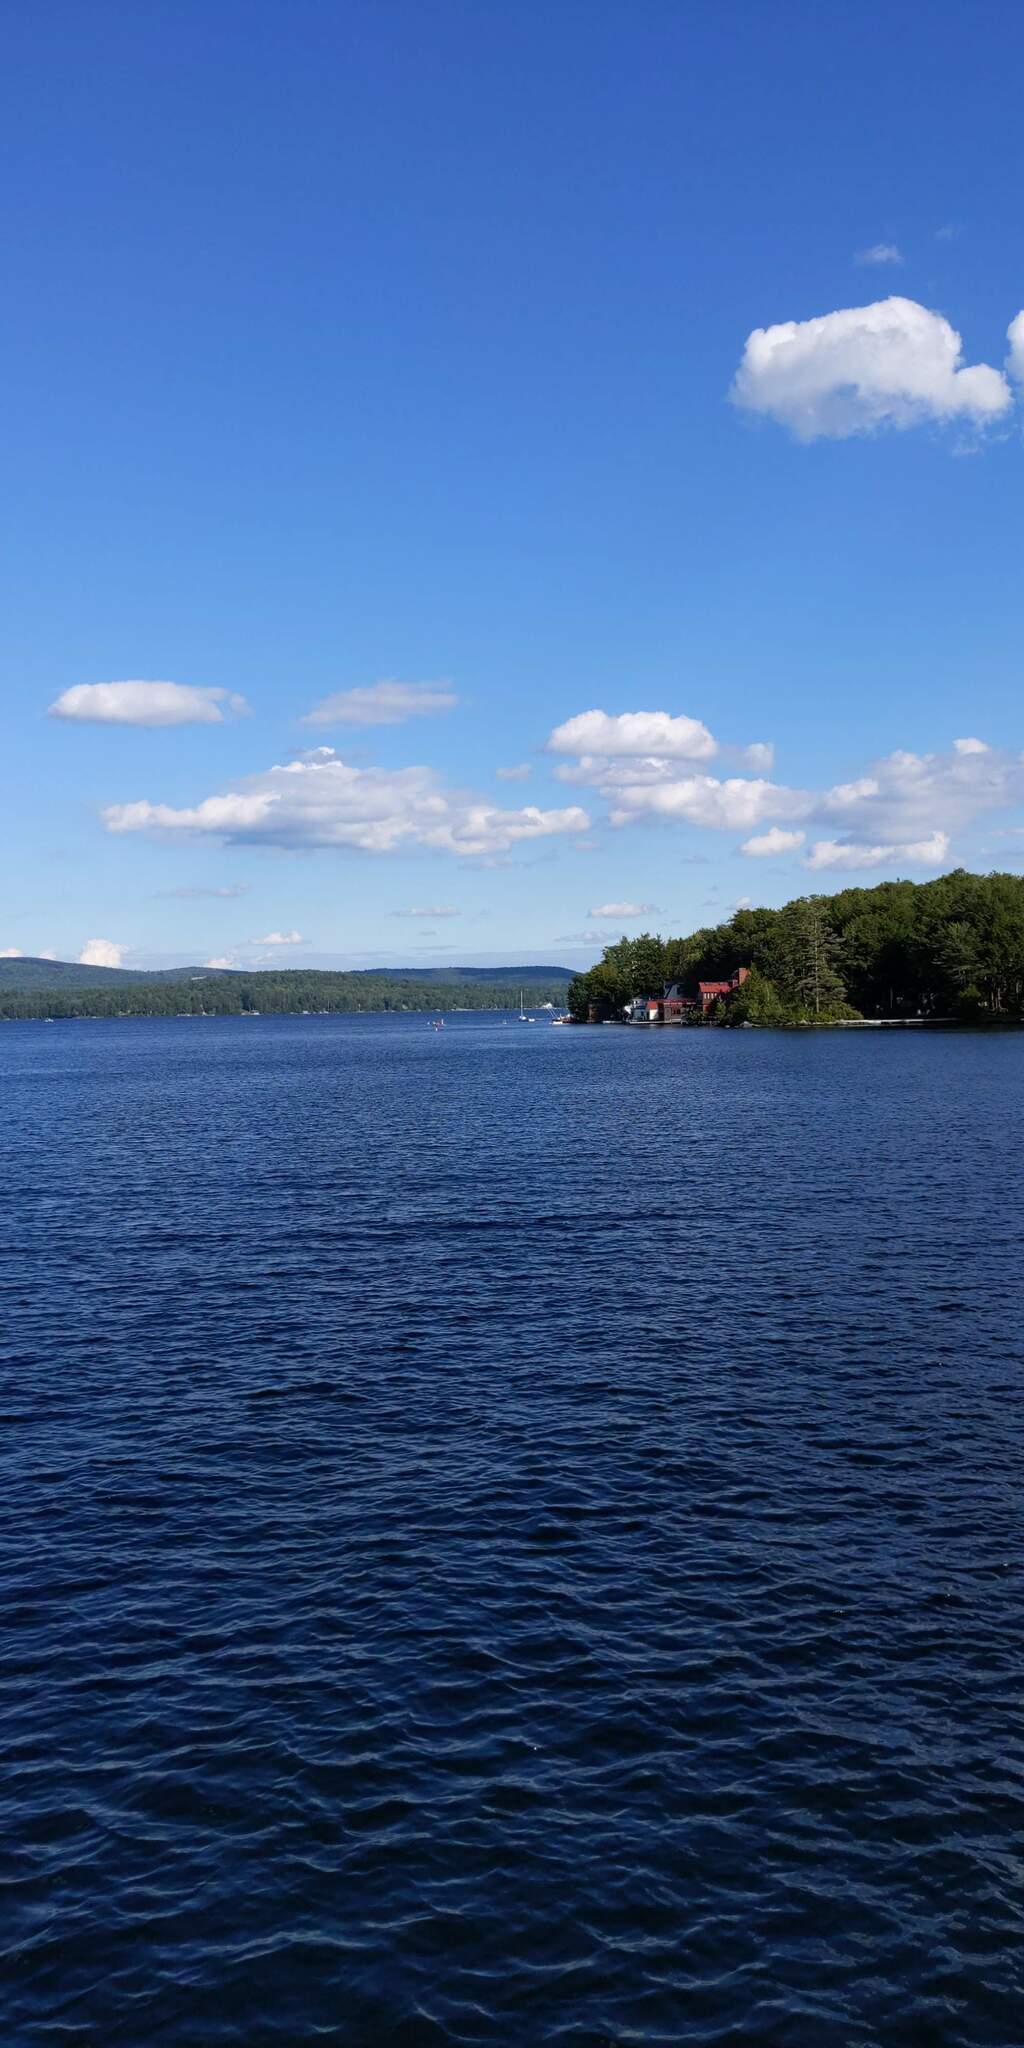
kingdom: Plantae
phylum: Tracheophyta
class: Pinopsida
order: Pinales
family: Pinaceae
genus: Pinus
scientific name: Pinus strobus
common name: Weymouth pine
